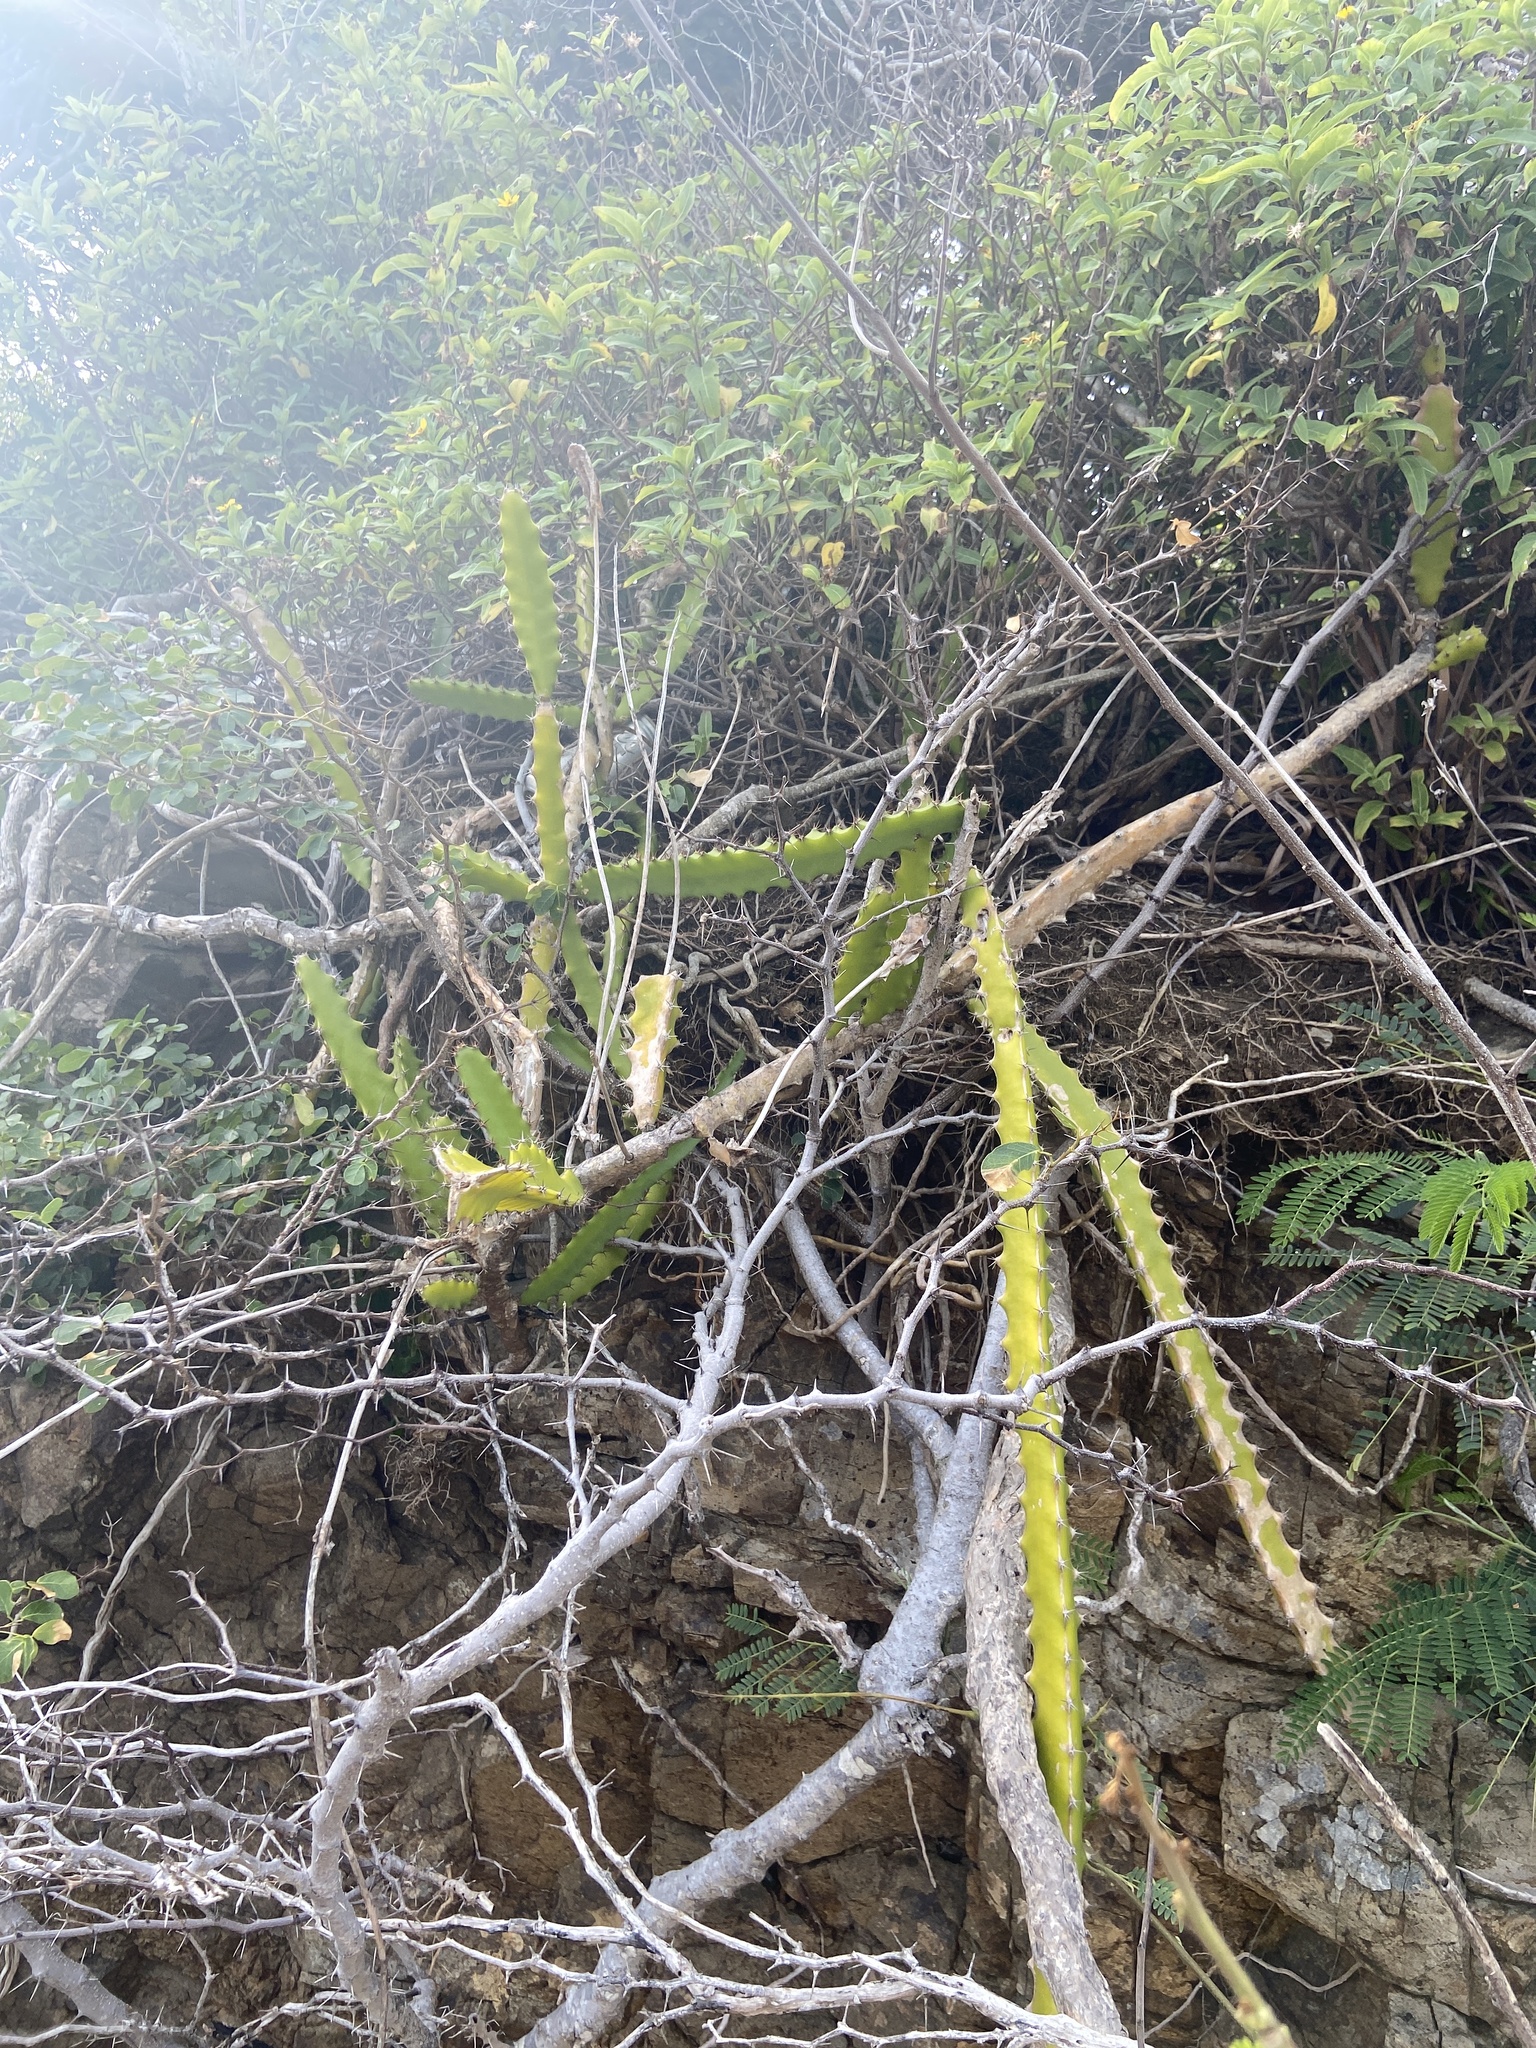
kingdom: Plantae
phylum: Tracheophyta
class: Magnoliopsida
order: Caryophyllales
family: Cactaceae
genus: Selenicereus
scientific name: Selenicereus triangularis
